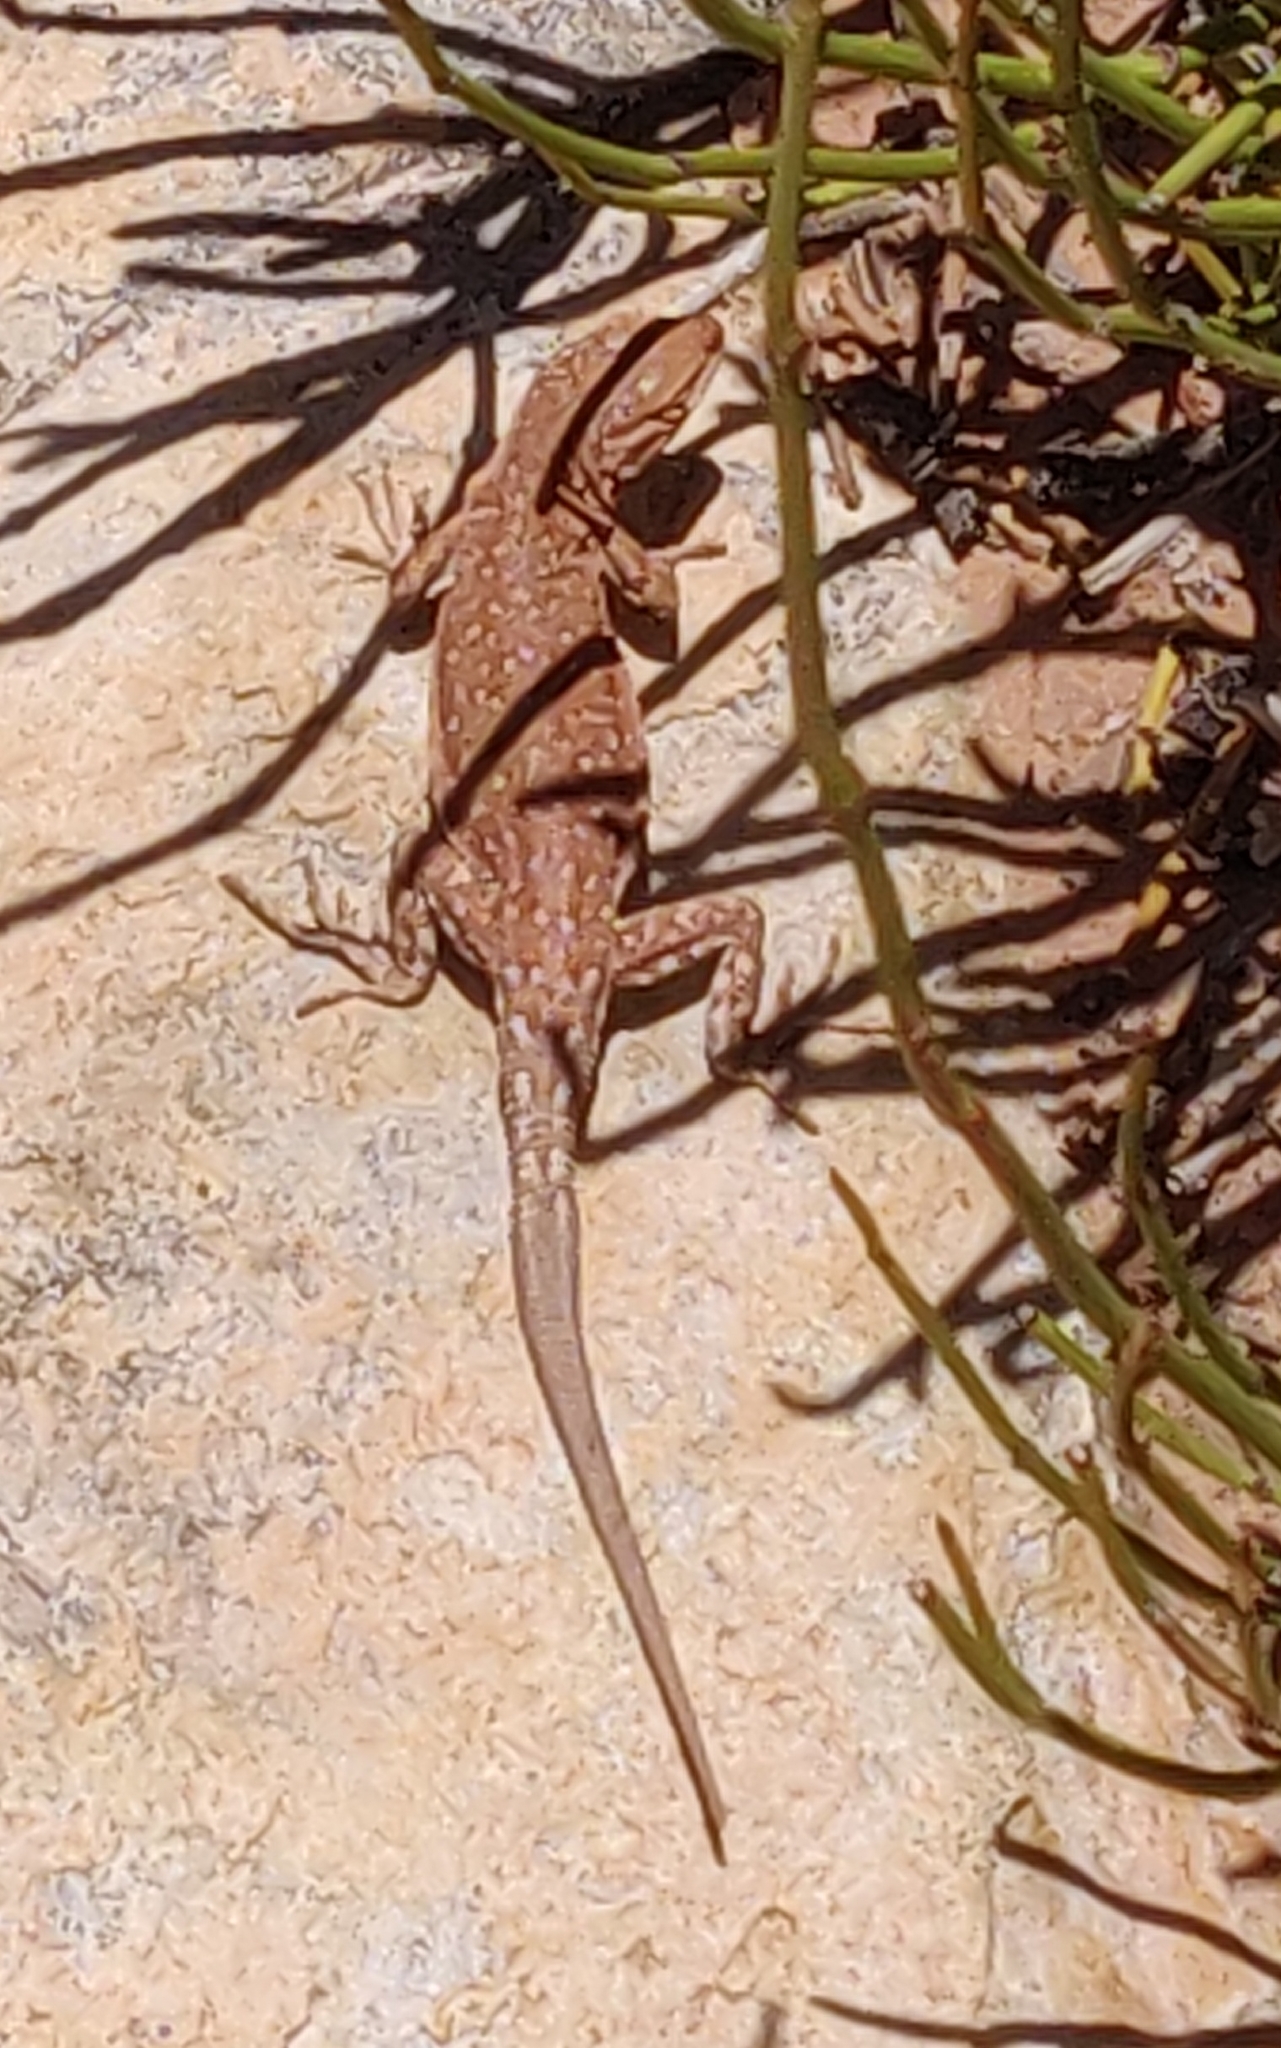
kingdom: Animalia
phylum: Chordata
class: Squamata
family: Phrynosomatidae
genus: Uta
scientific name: Uta stansburiana
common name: Side-blotched lizard
